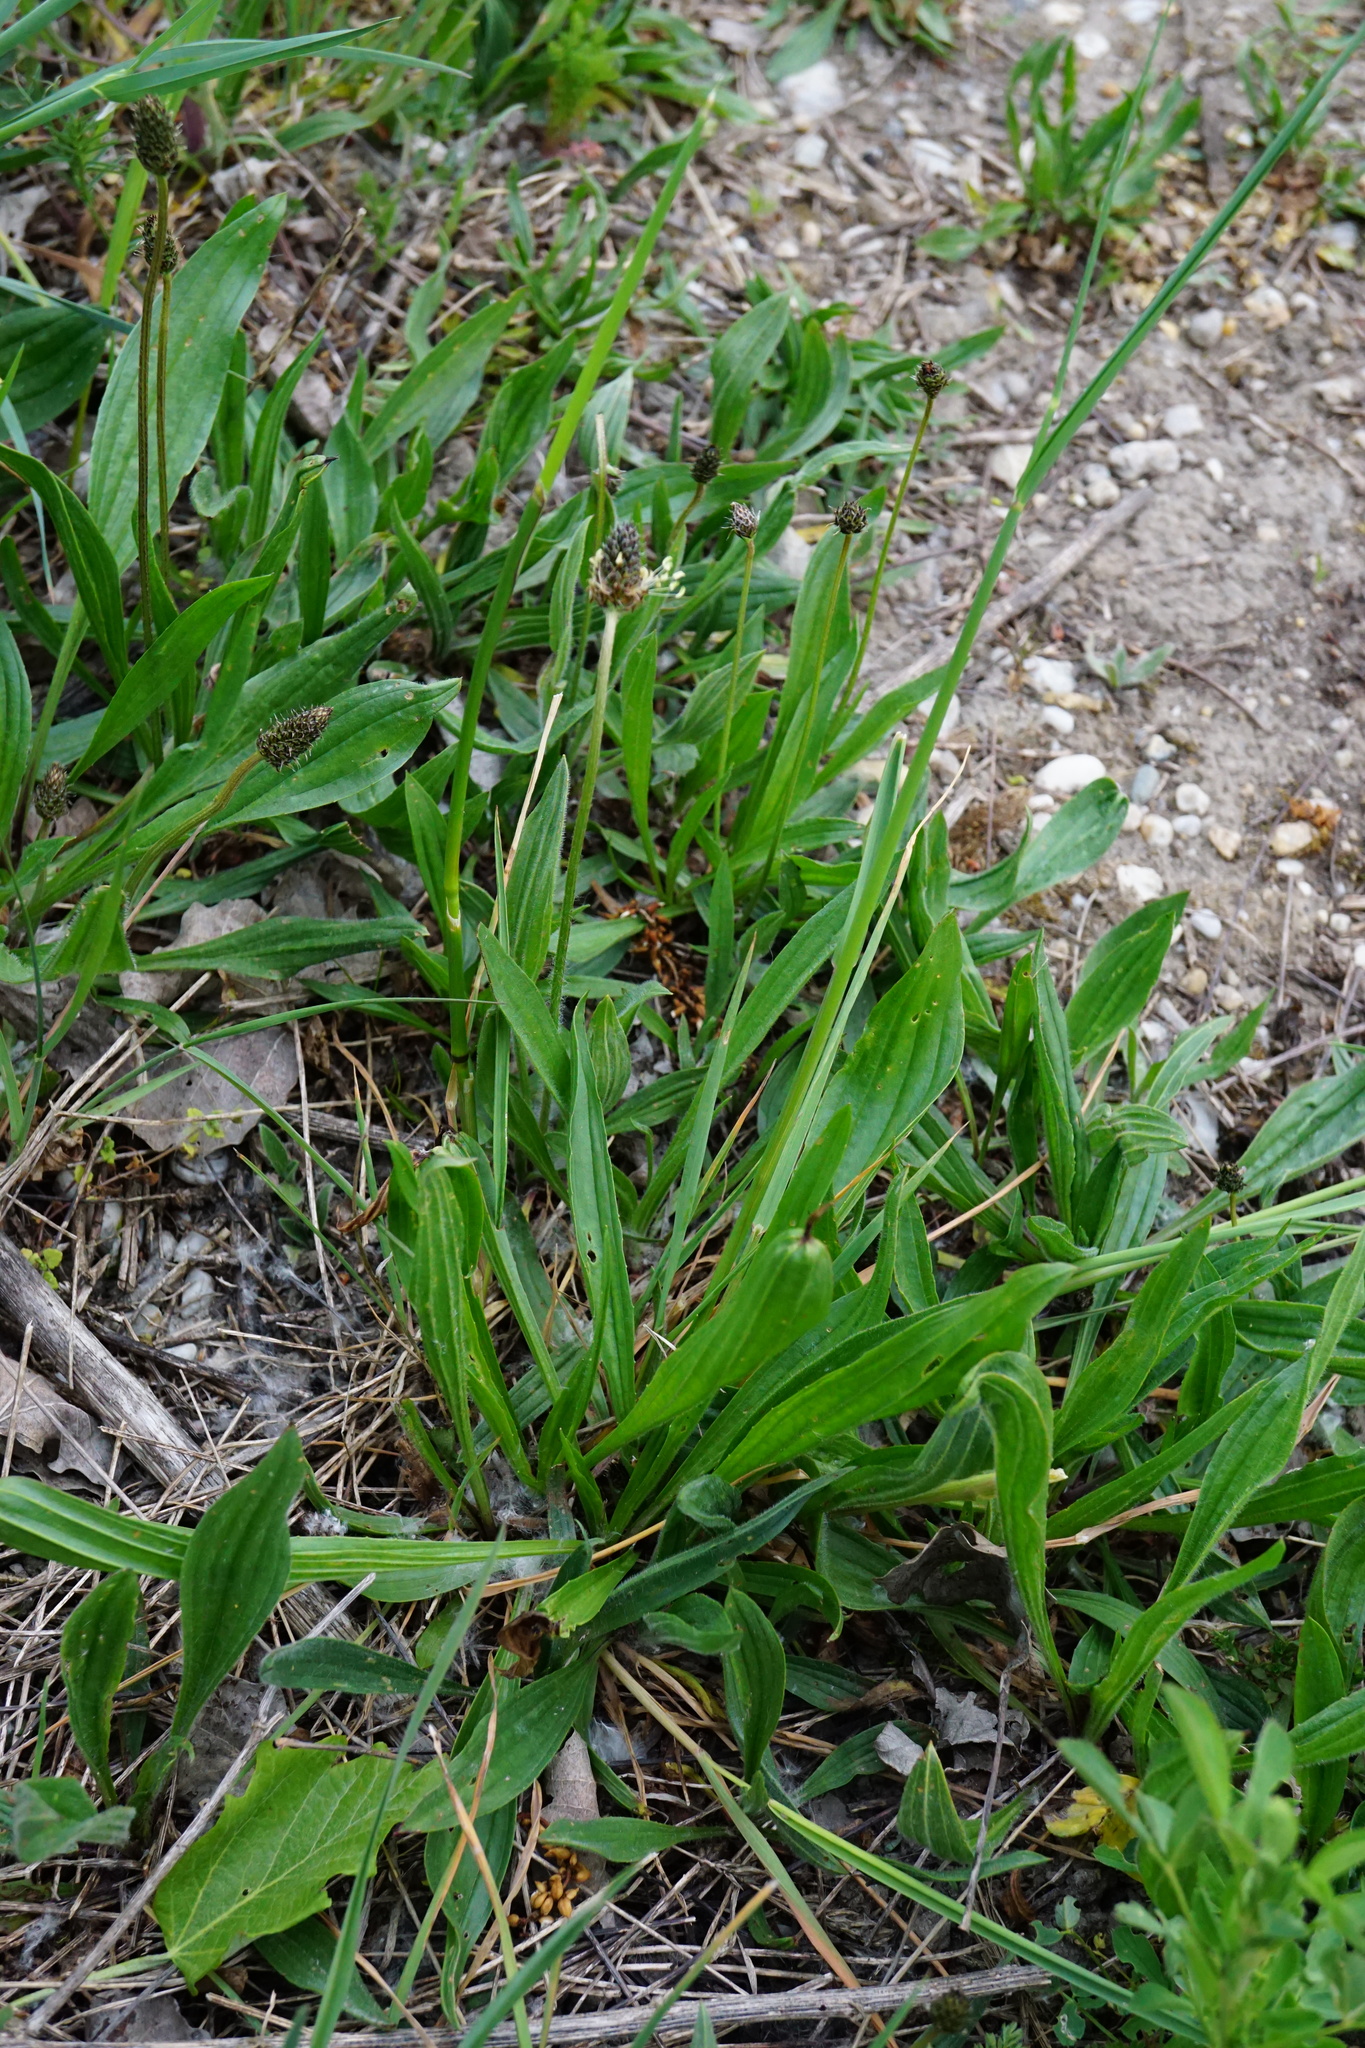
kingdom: Plantae
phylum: Tracheophyta
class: Magnoliopsida
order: Lamiales
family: Plantaginaceae
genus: Plantago
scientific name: Plantago lanceolata
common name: Ribwort plantain
